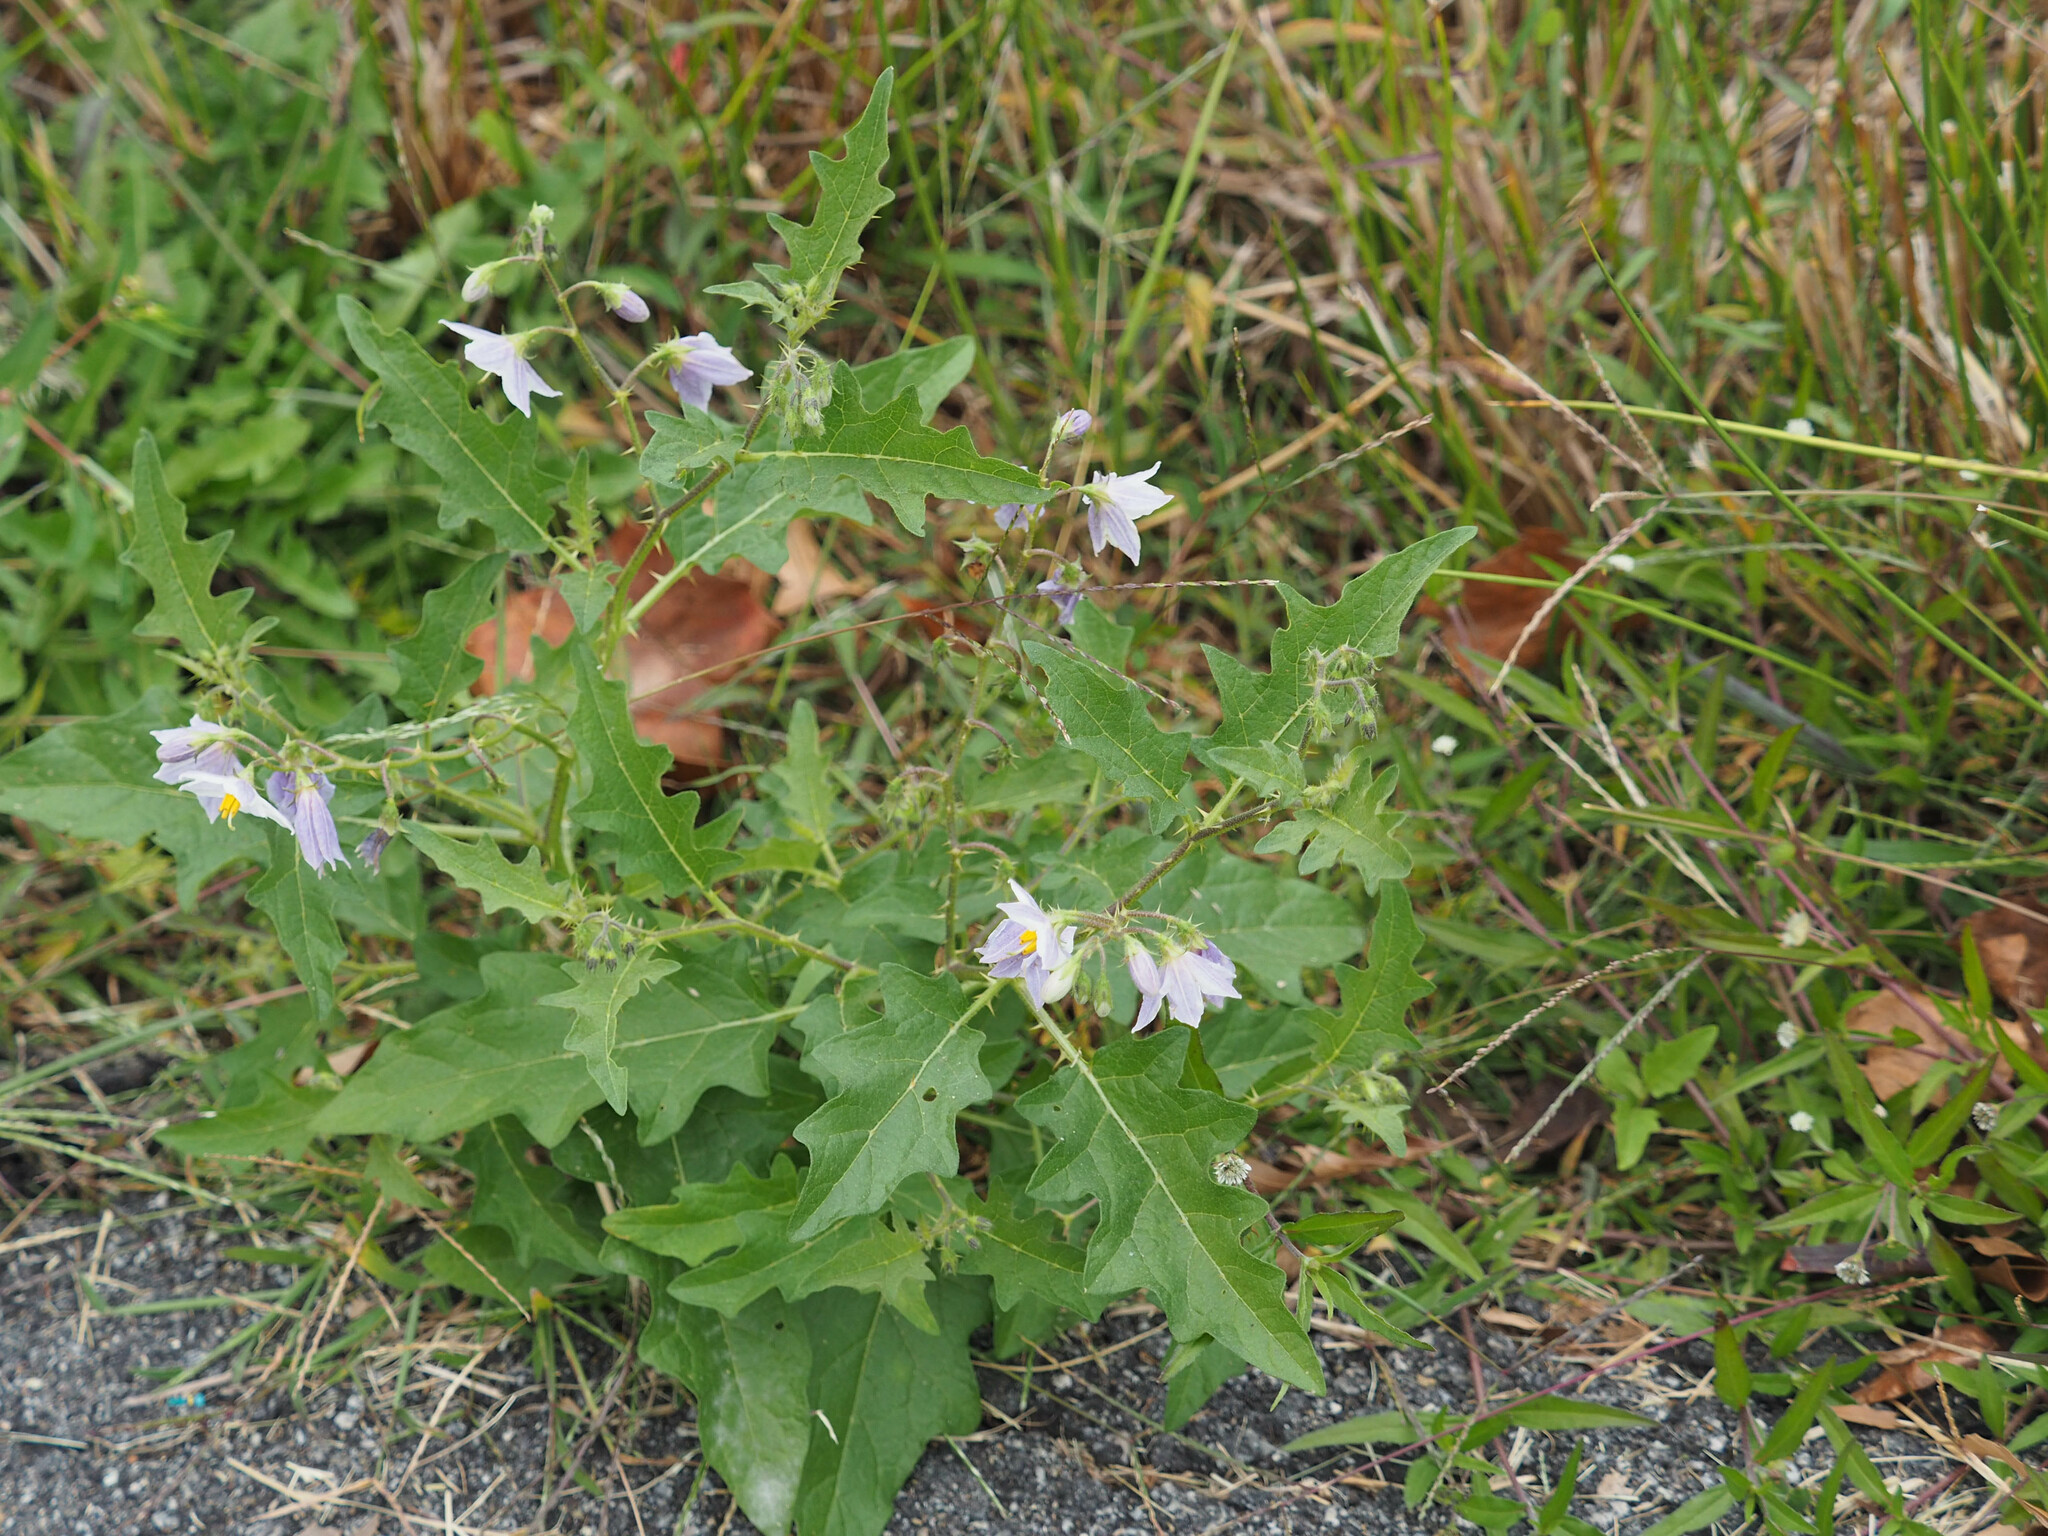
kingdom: Plantae
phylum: Tracheophyta
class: Magnoliopsida
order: Solanales
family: Solanaceae
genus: Solanum
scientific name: Solanum carolinense
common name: Horse-nettle
